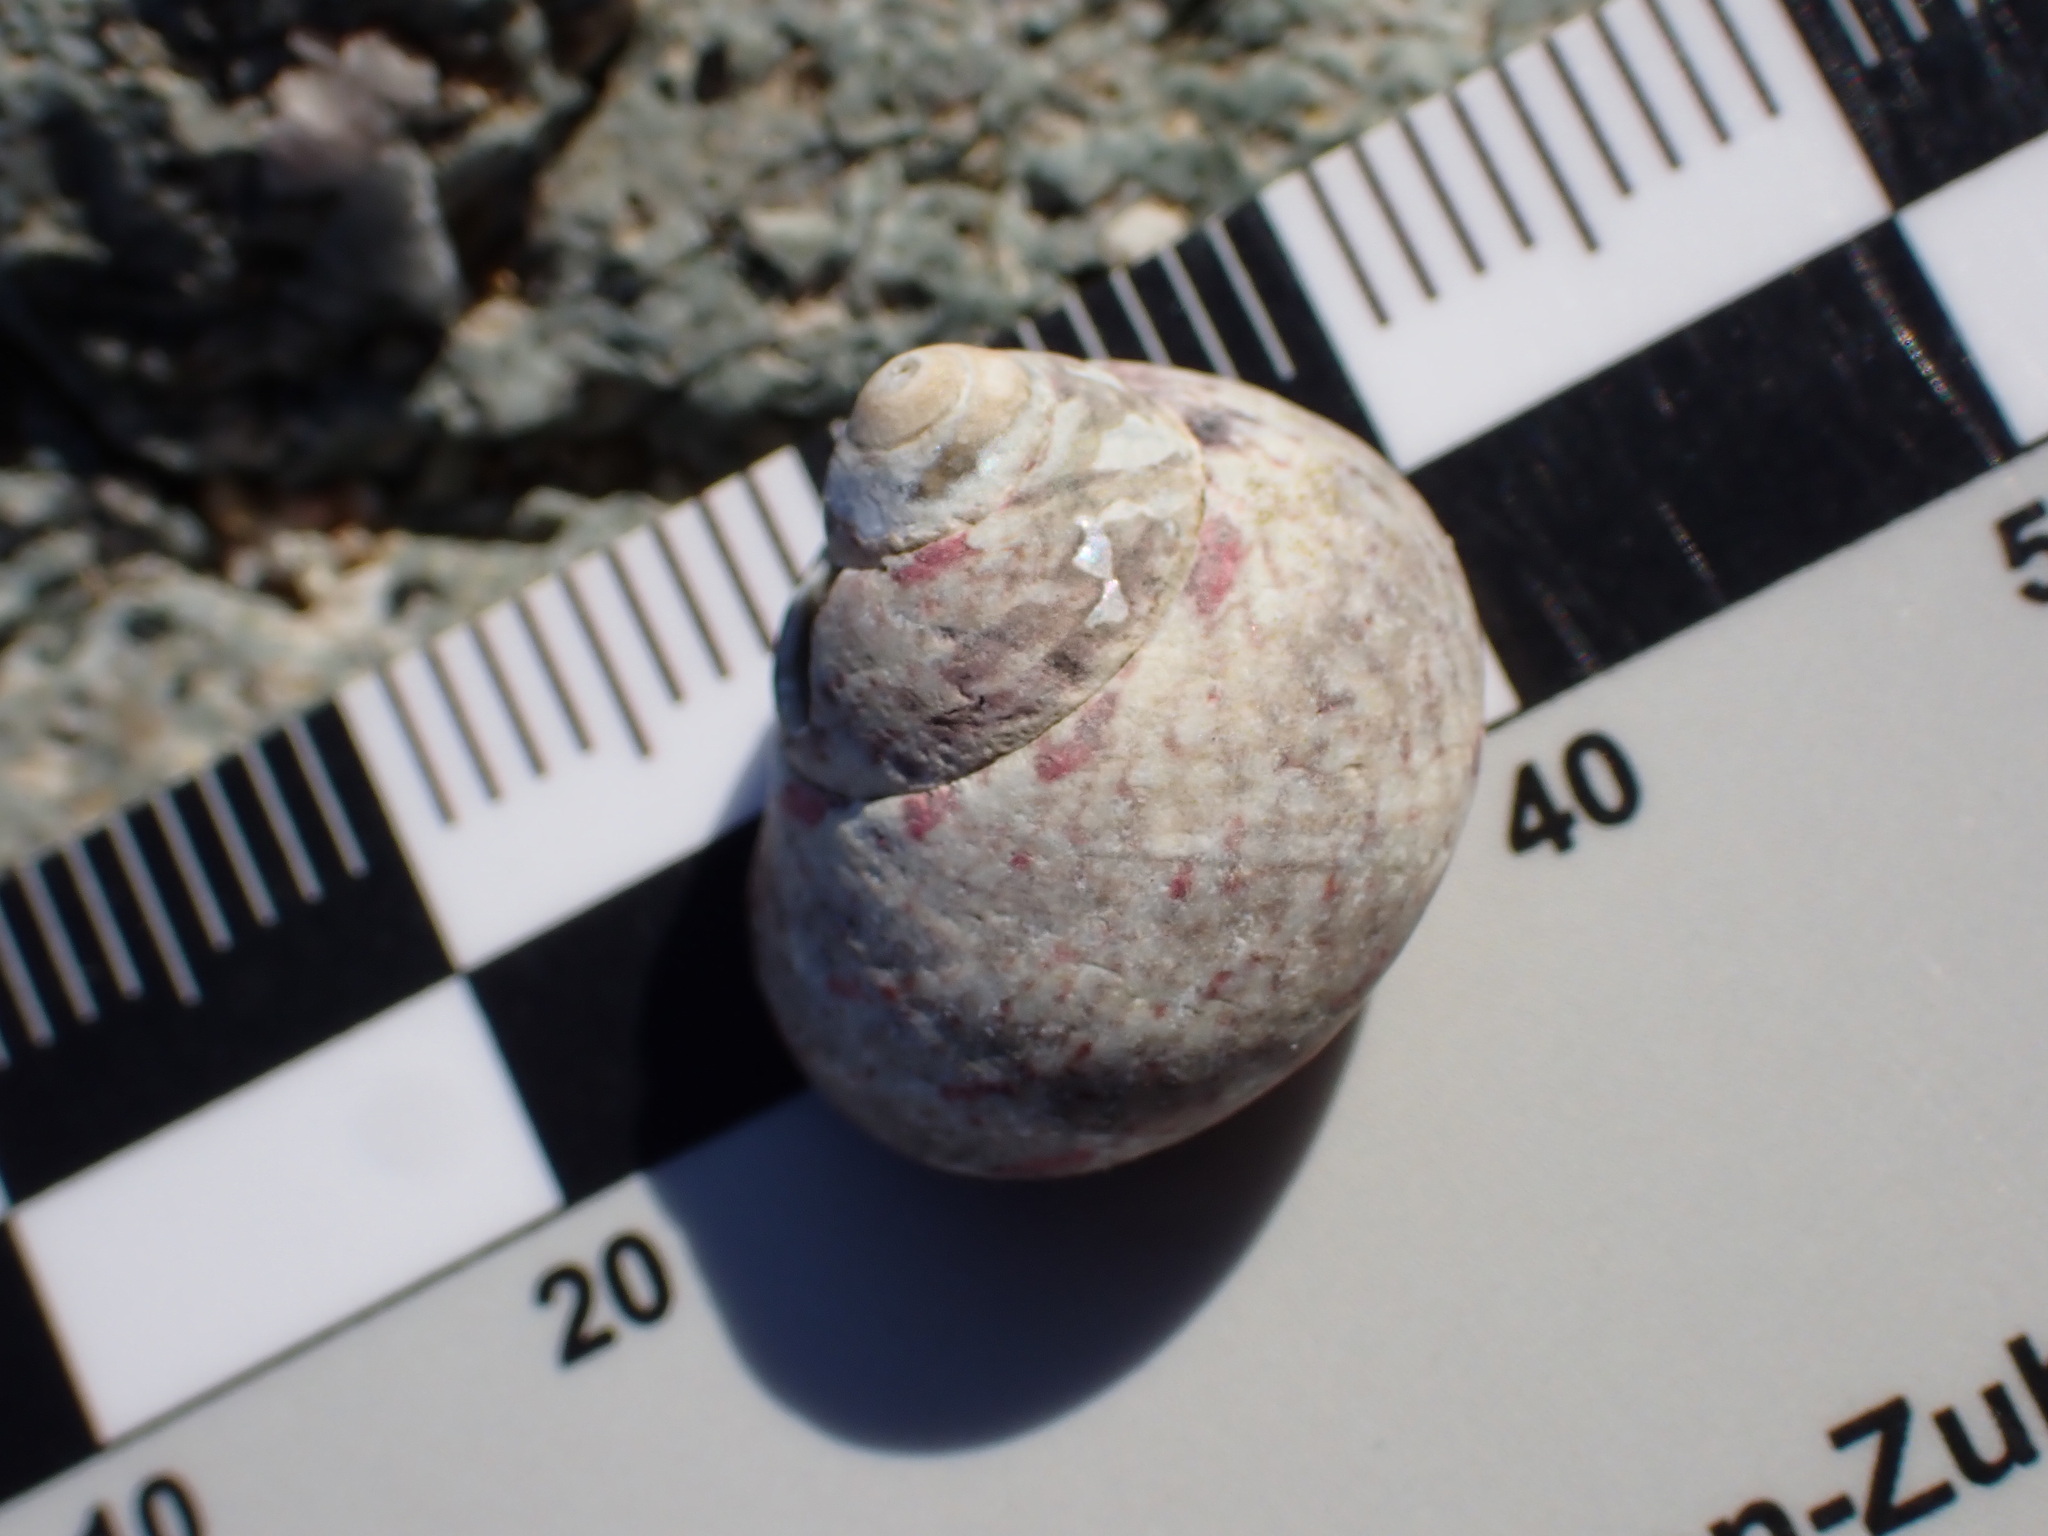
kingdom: Animalia
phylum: Mollusca
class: Gastropoda
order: Trochida
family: Trochidae
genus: Phorcus
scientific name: Phorcus articulatus
